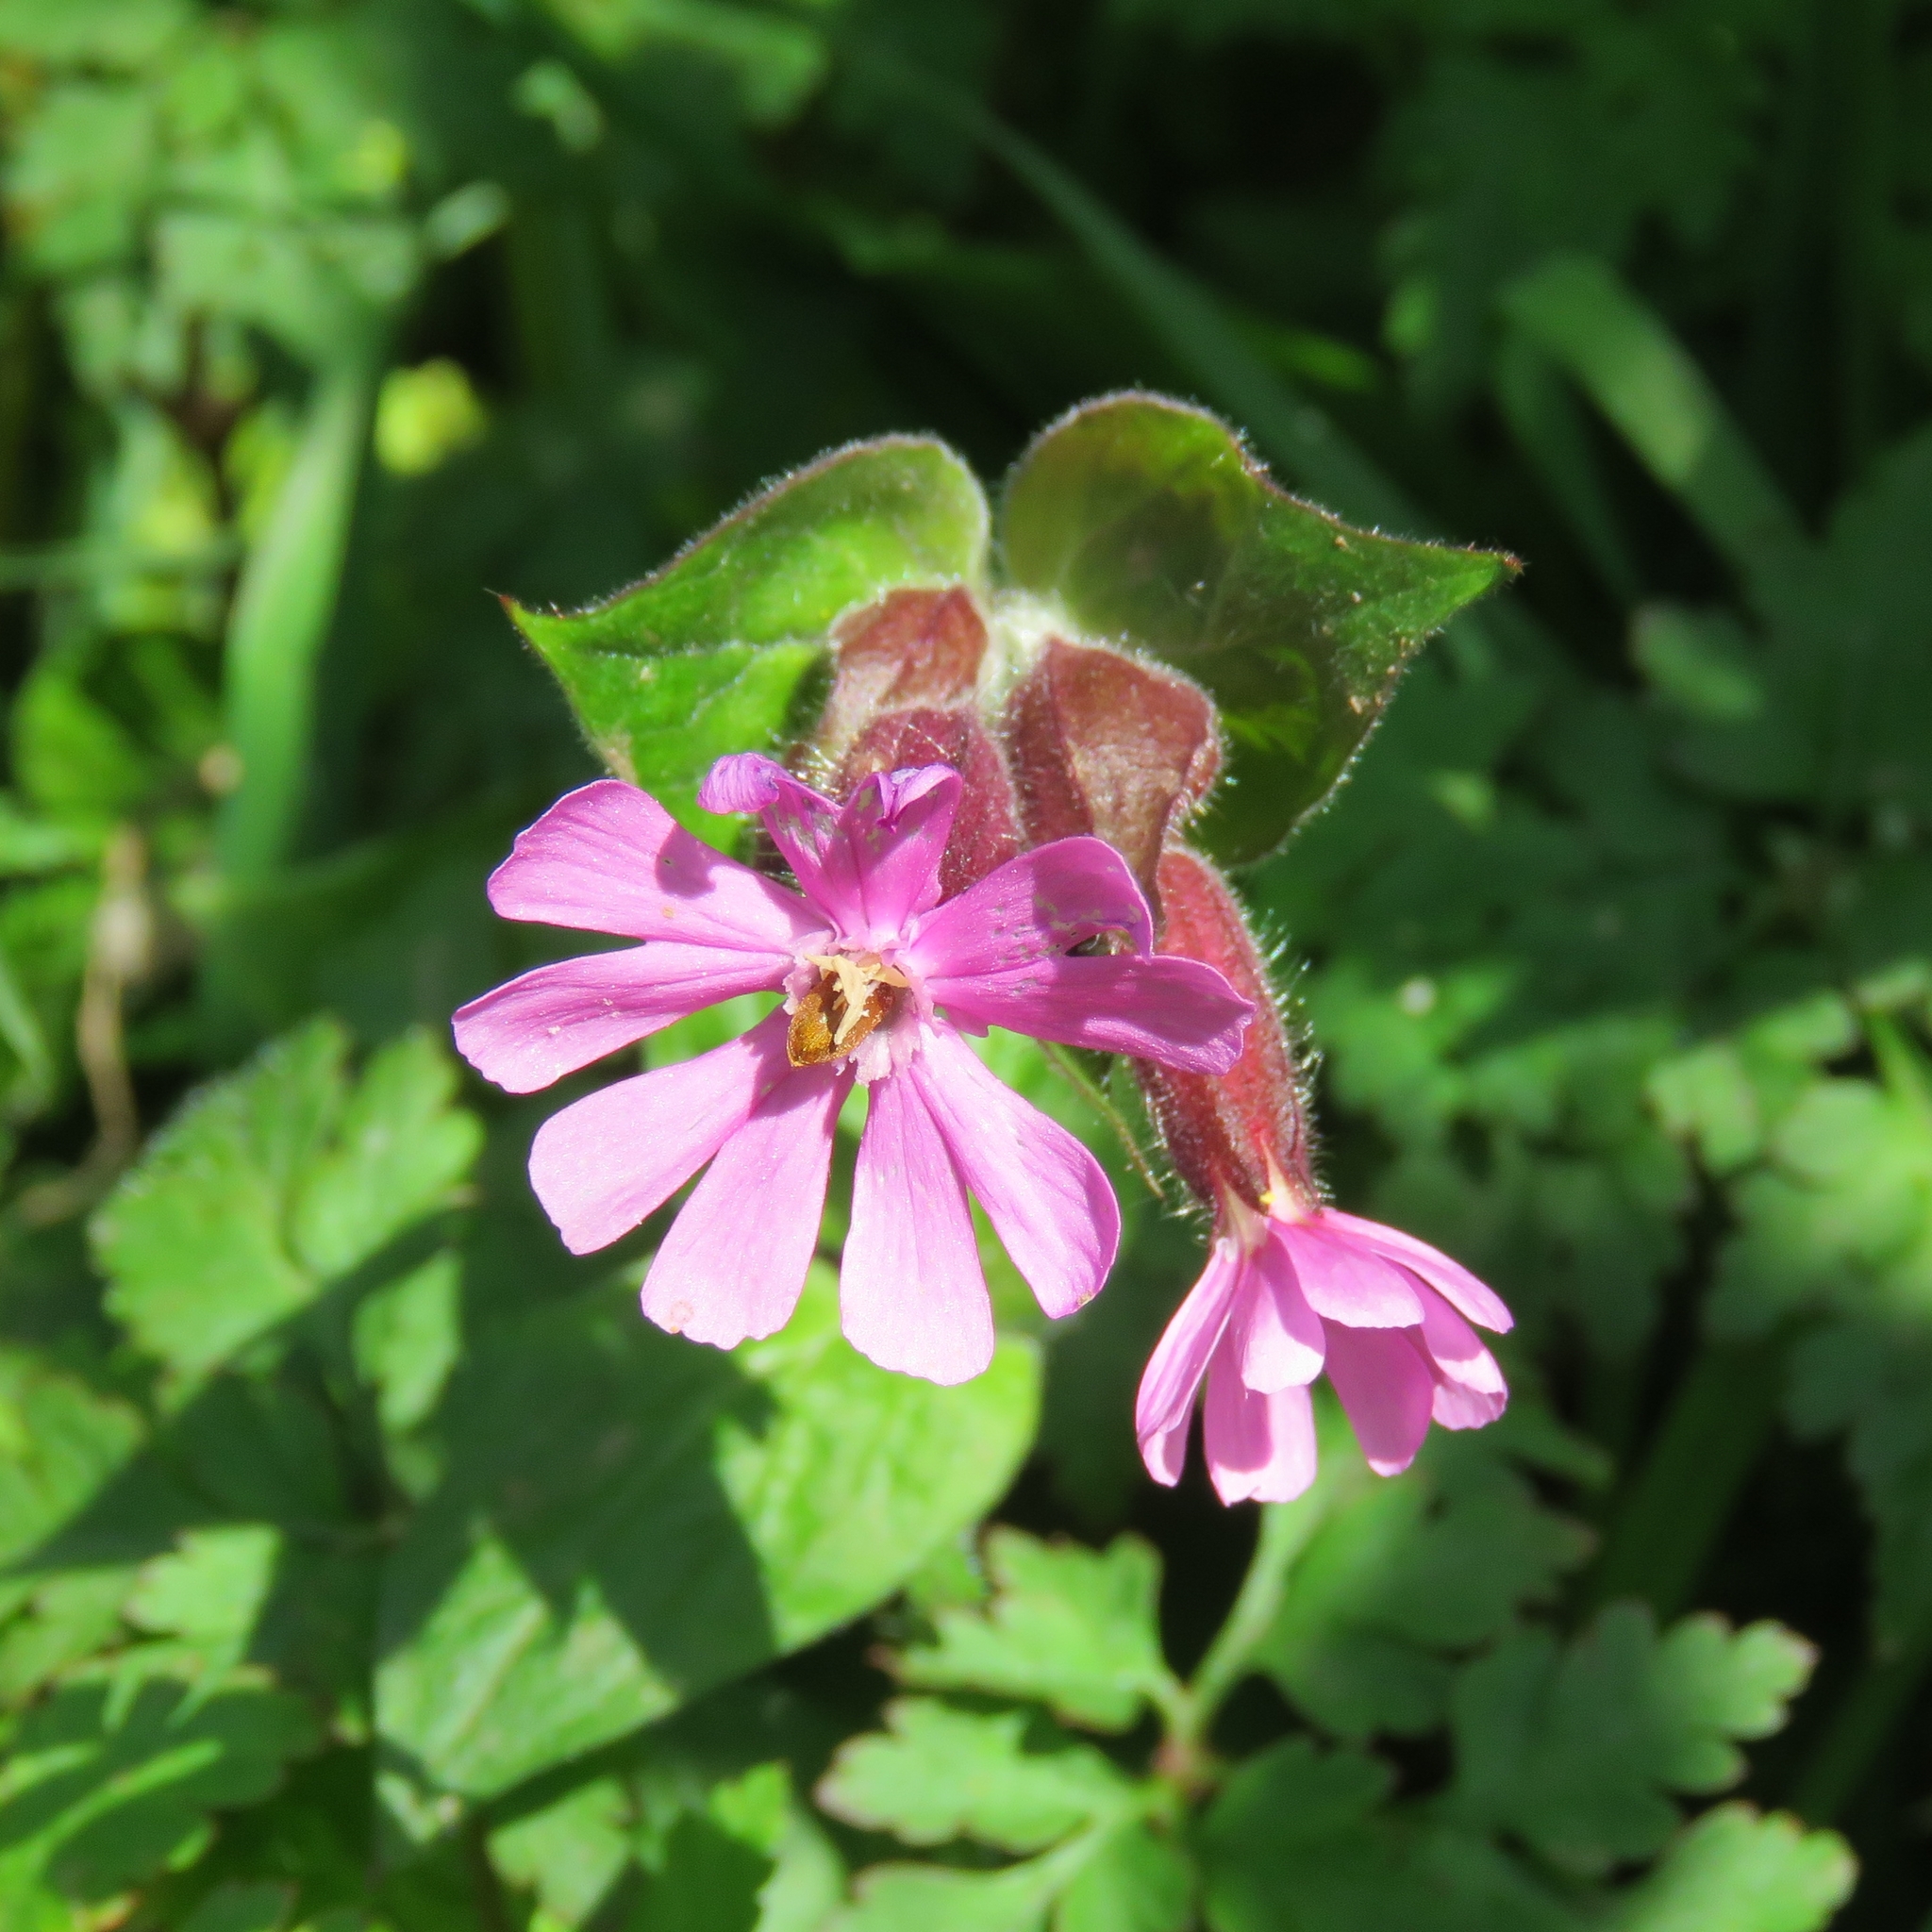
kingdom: Plantae
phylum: Tracheophyta
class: Magnoliopsida
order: Caryophyllales
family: Caryophyllaceae
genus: Silene
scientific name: Silene dioica
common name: Red campion
